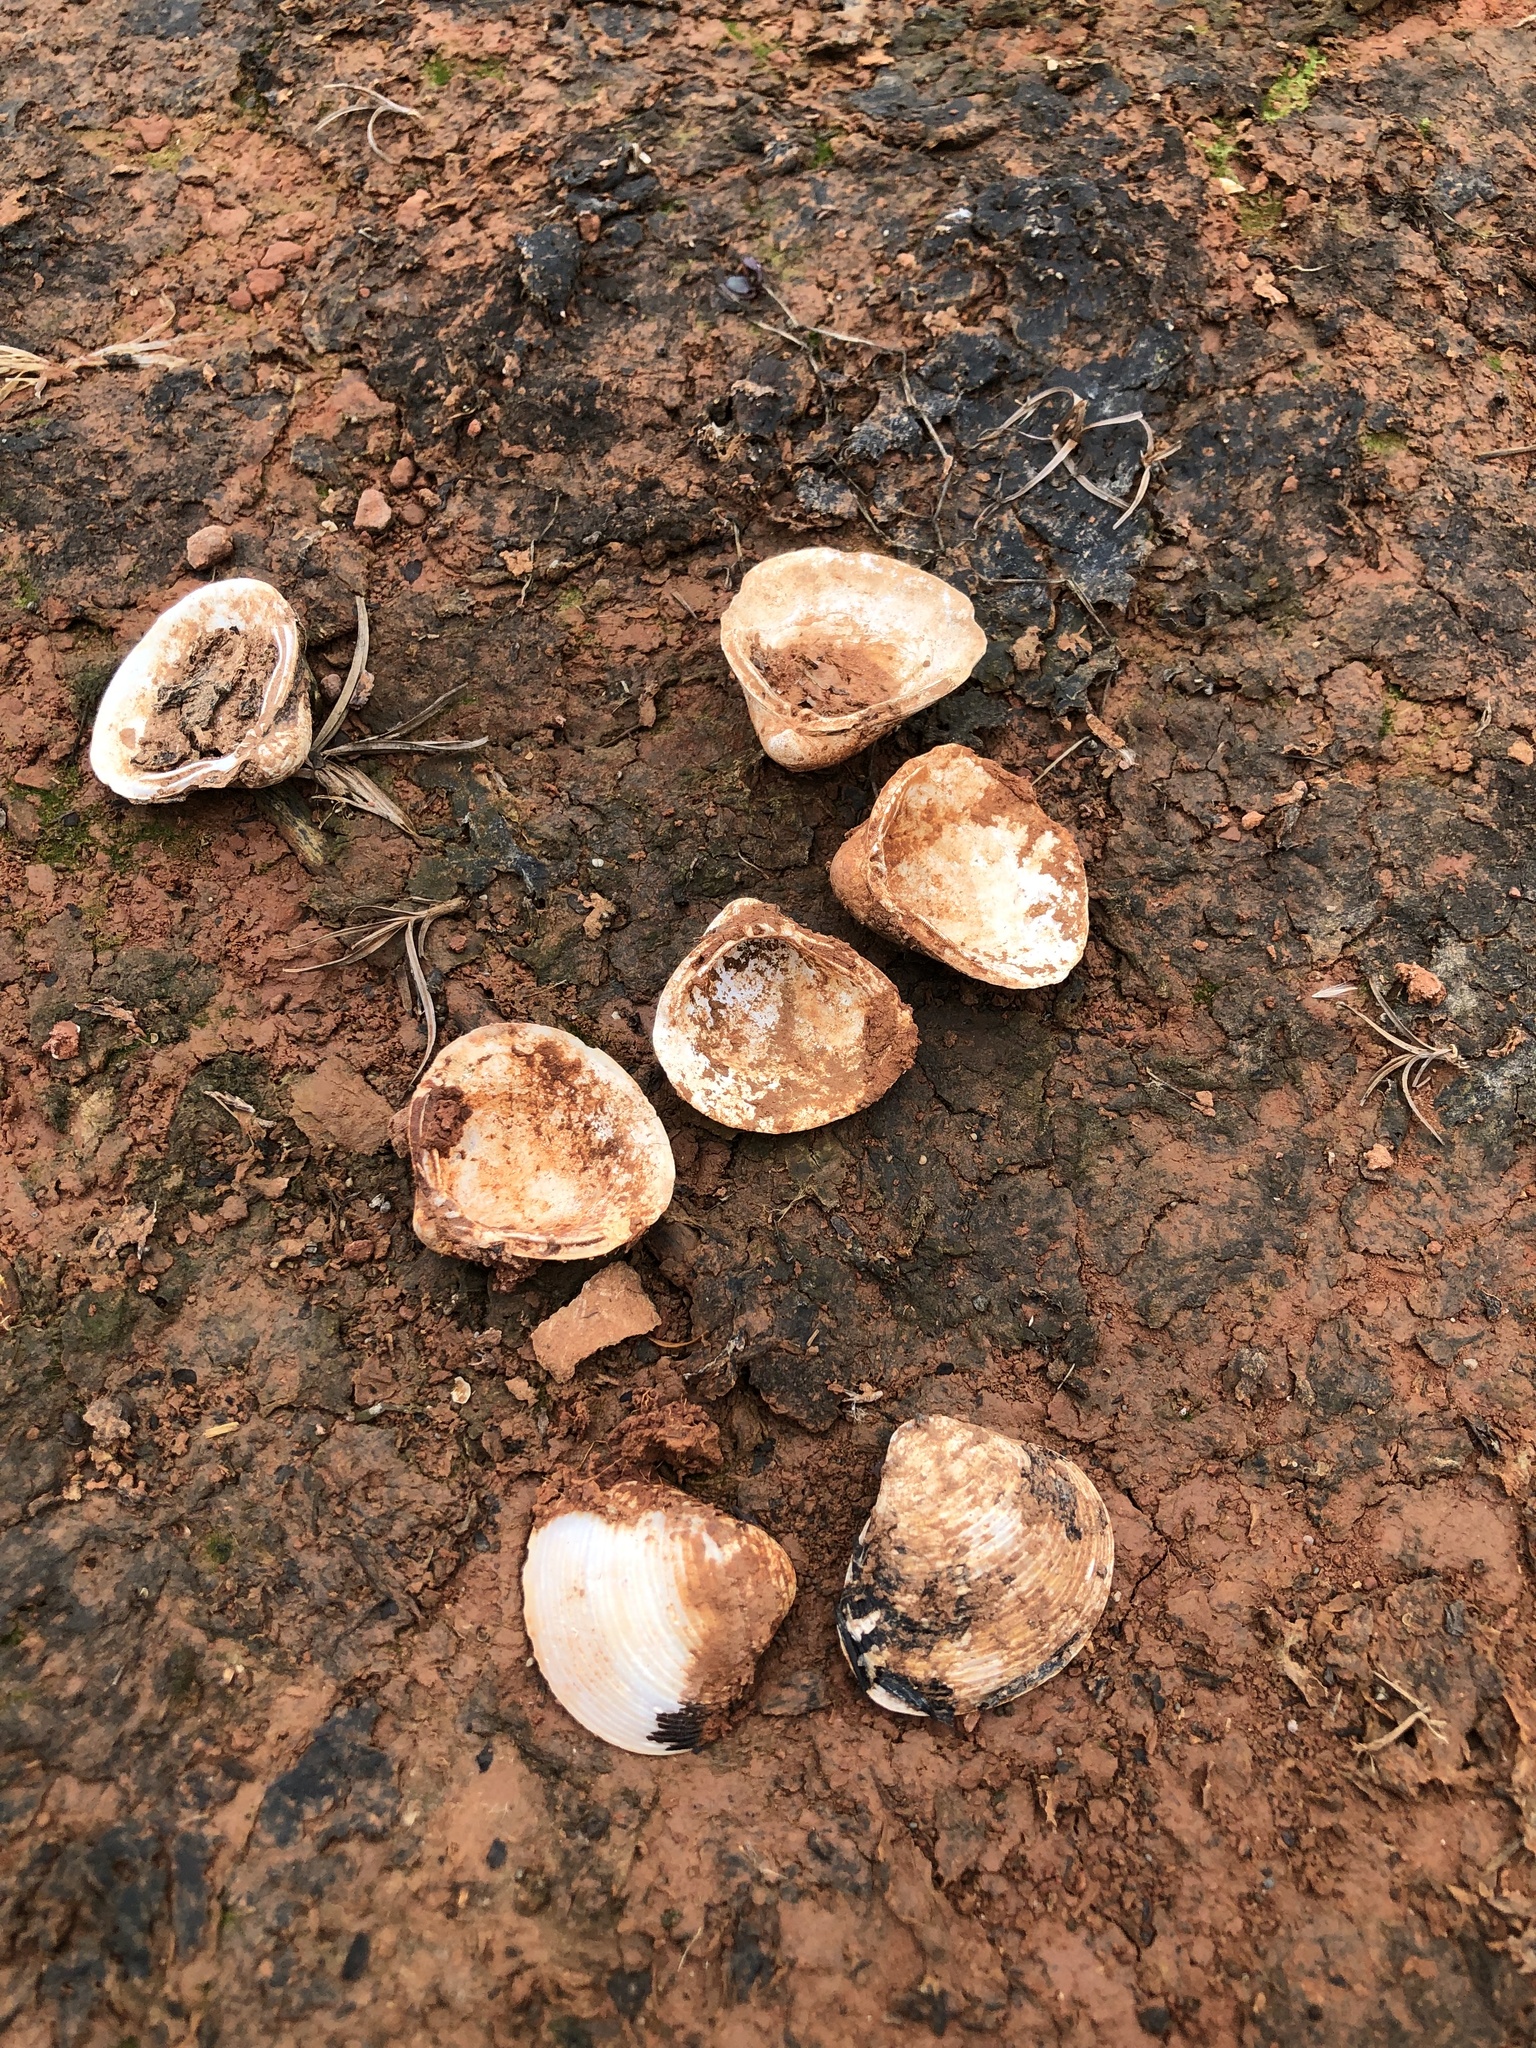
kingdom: Animalia
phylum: Mollusca
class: Bivalvia
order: Venerida
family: Cyrenidae
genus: Corbicula
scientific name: Corbicula fluminea
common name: Asian clam
